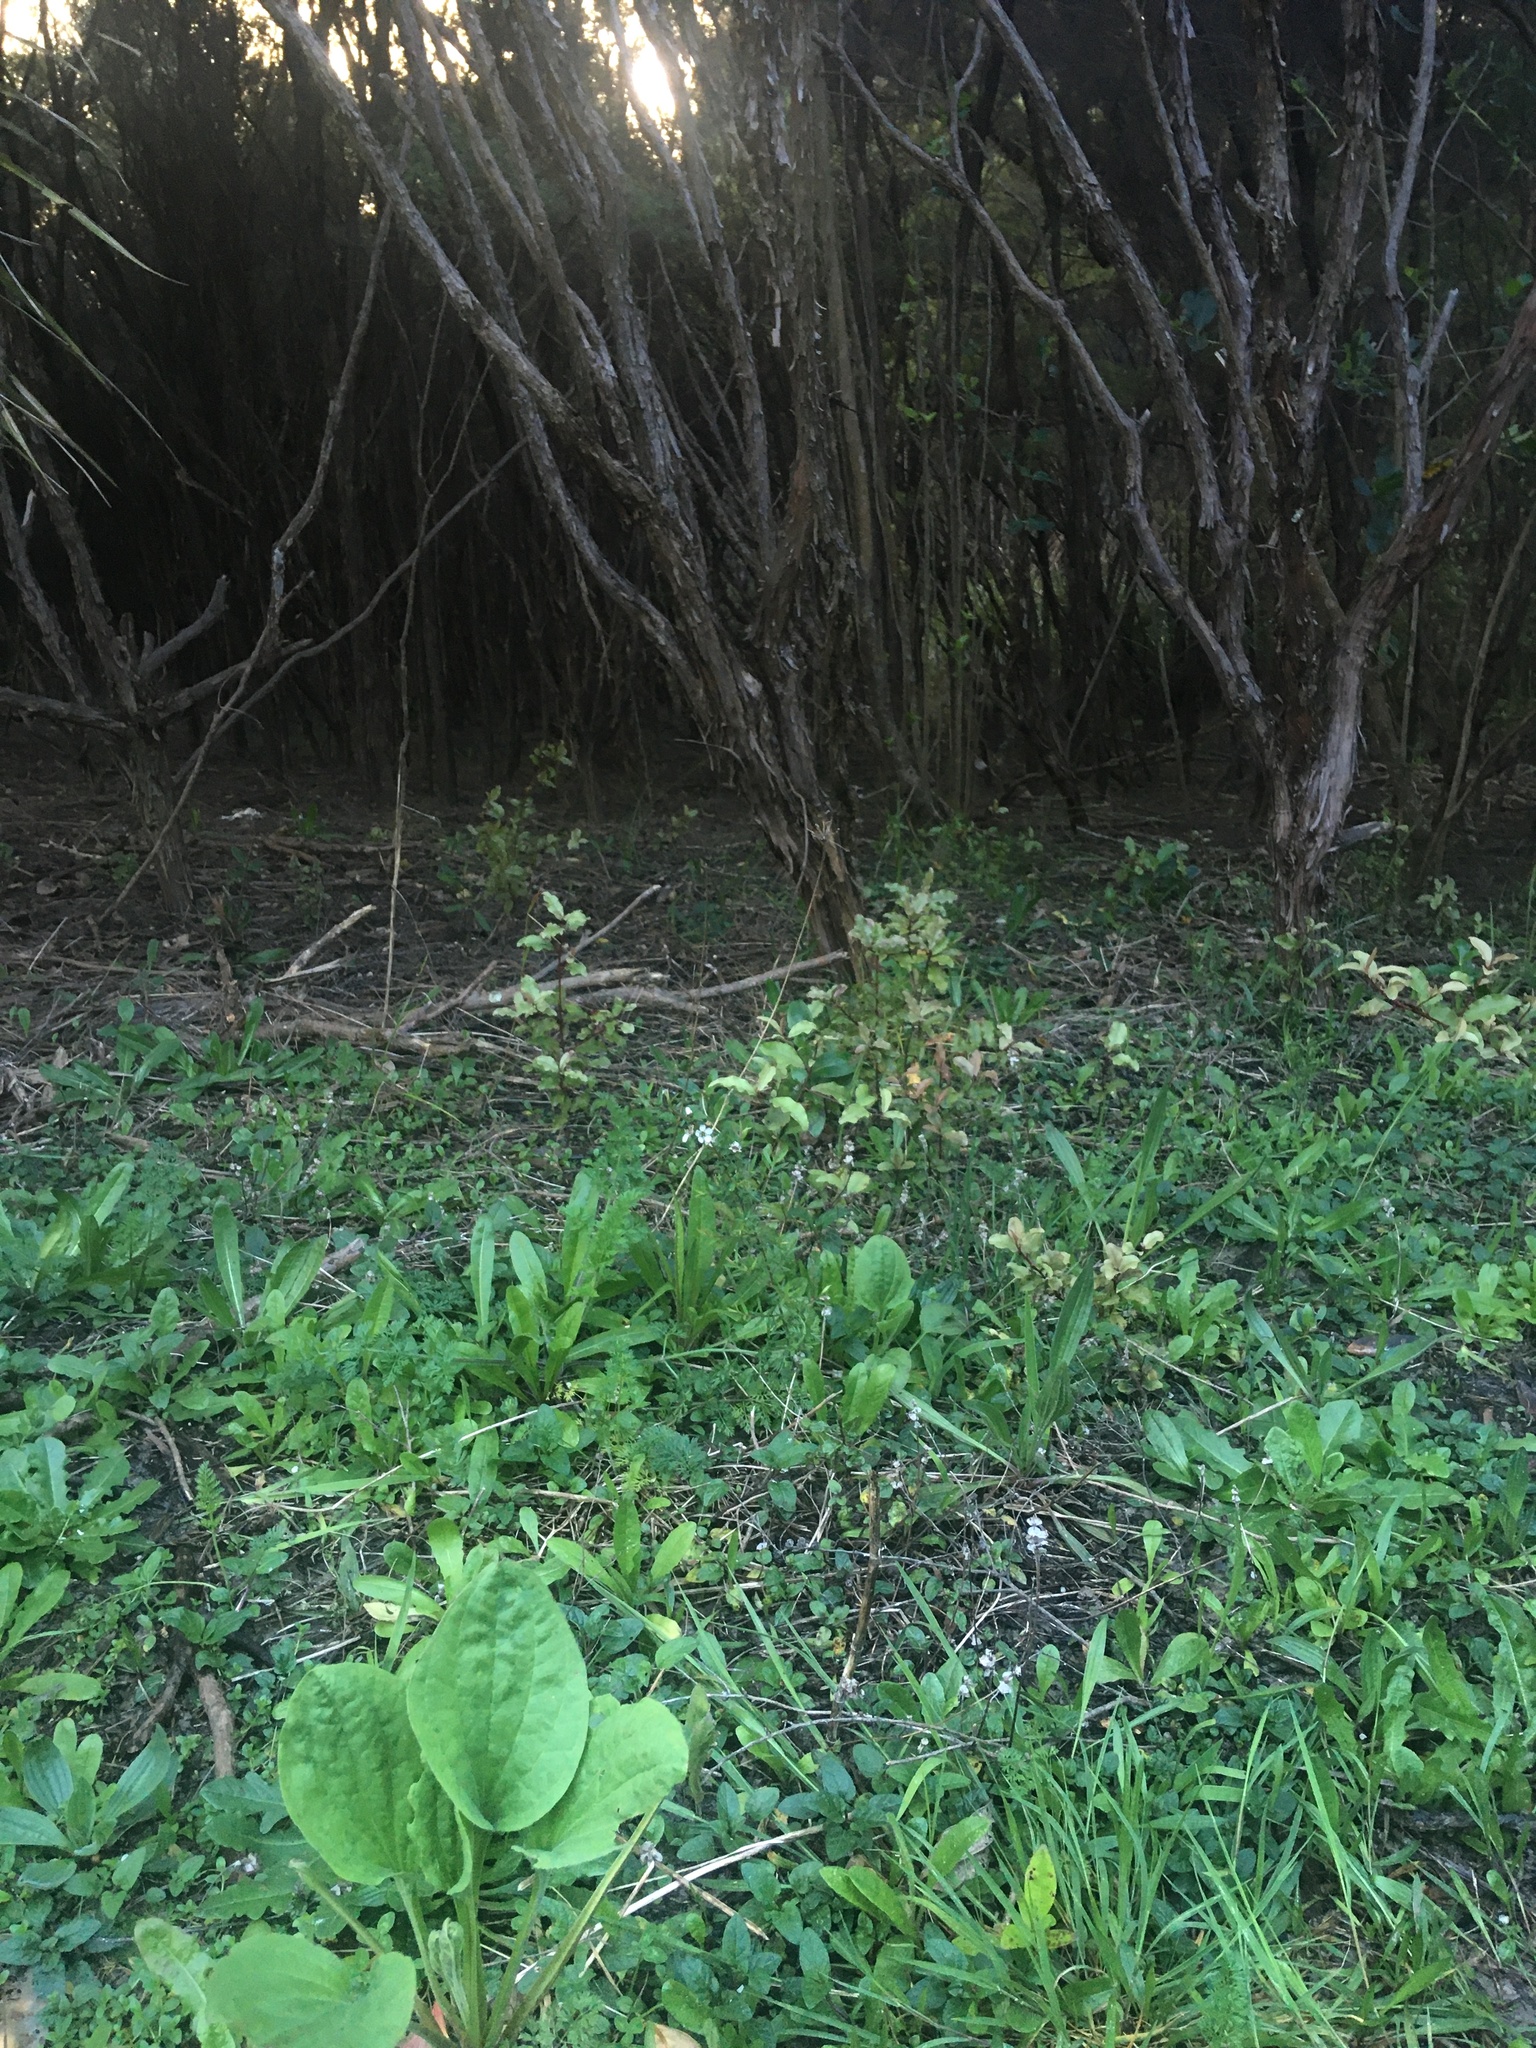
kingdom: Plantae
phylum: Tracheophyta
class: Magnoliopsida
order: Myrtales
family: Myrtaceae
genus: Leptospermum
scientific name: Leptospermum scoparium
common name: Broom tea-tree
